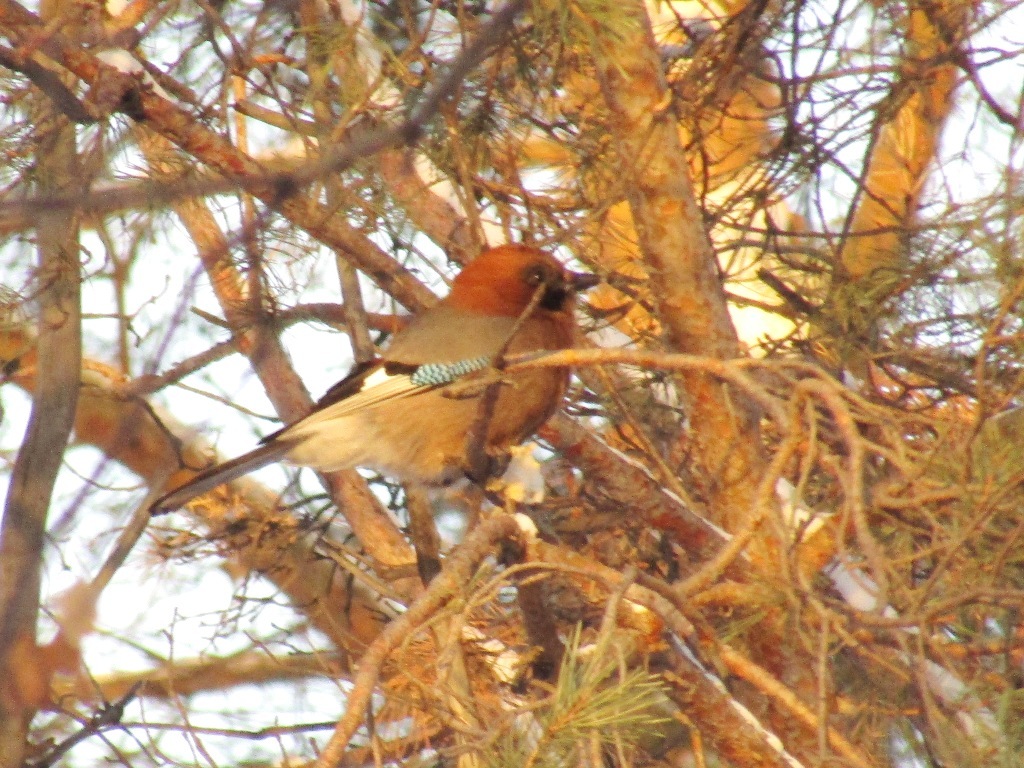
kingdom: Animalia
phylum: Chordata
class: Aves
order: Passeriformes
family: Corvidae
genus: Garrulus
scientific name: Garrulus glandarius
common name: Eurasian jay
